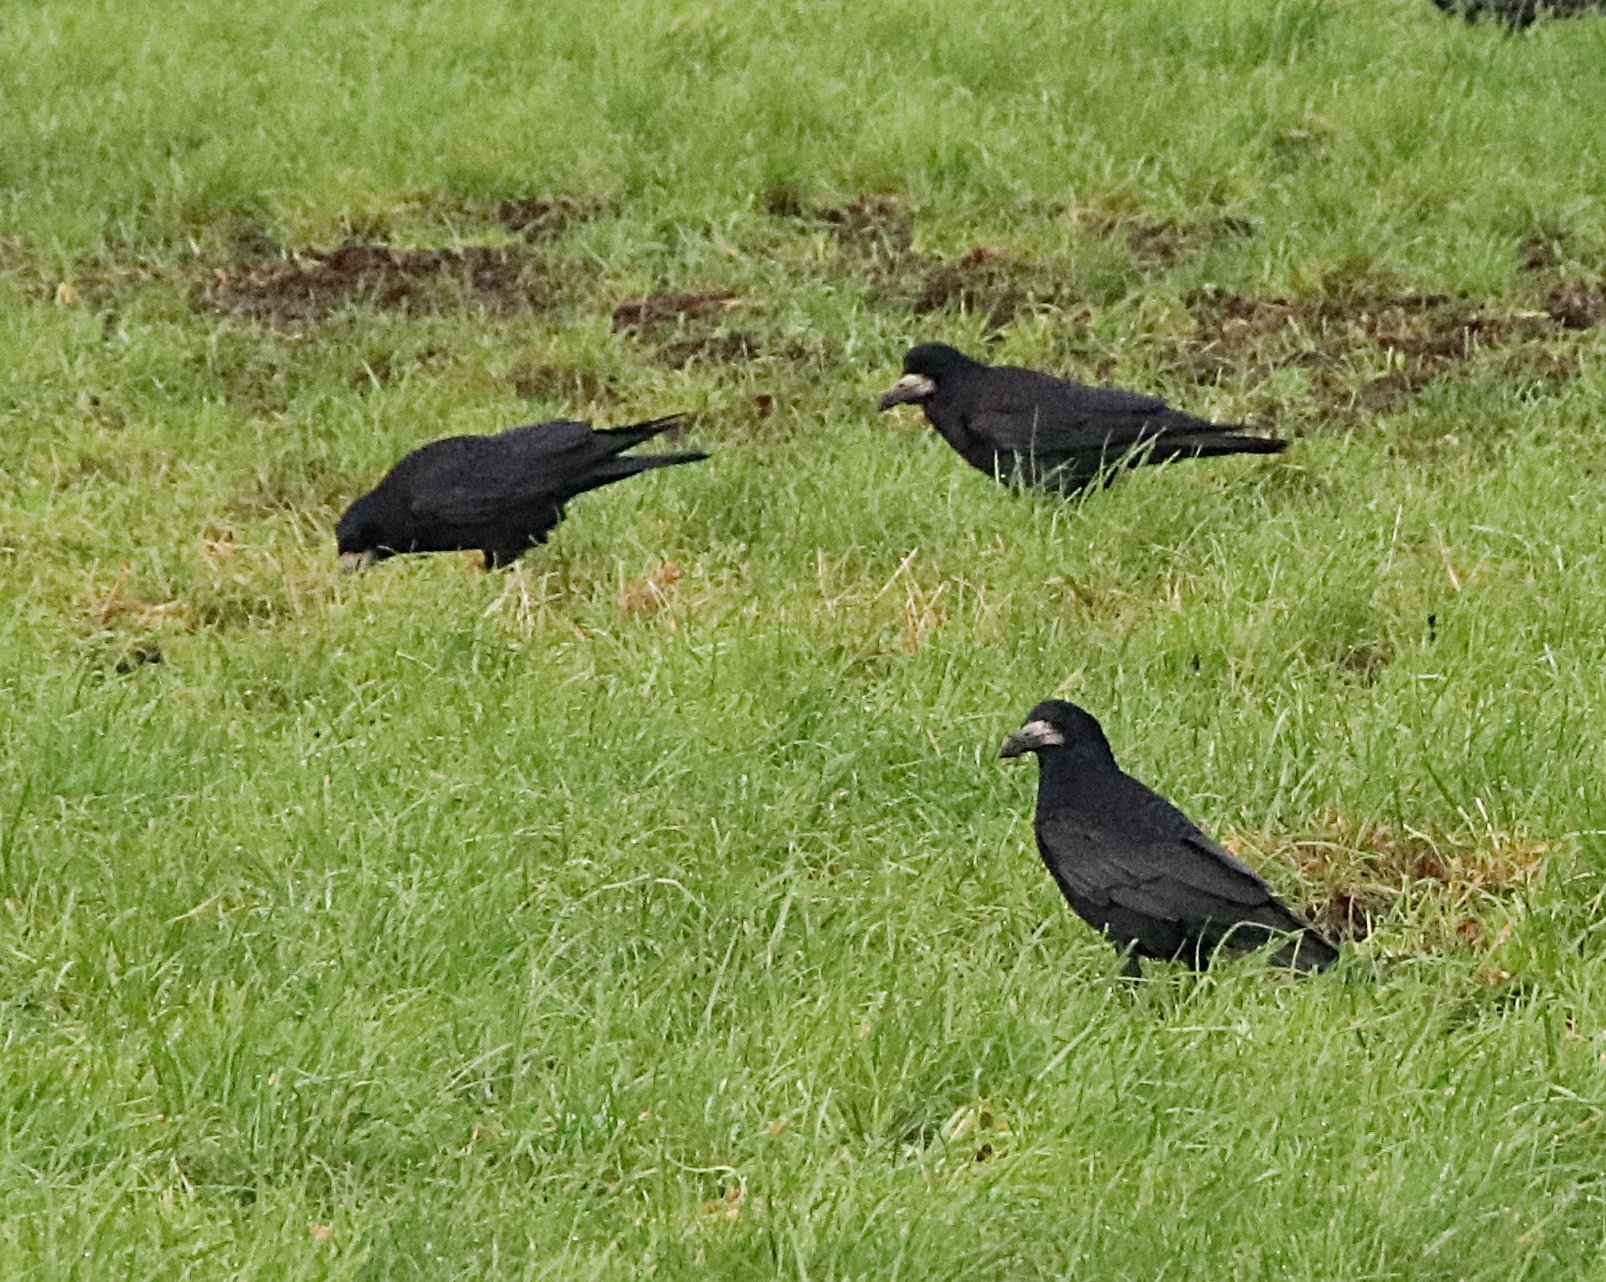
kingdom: Animalia
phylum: Chordata
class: Aves
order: Passeriformes
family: Corvidae
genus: Corvus
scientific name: Corvus frugilegus
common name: Rook
